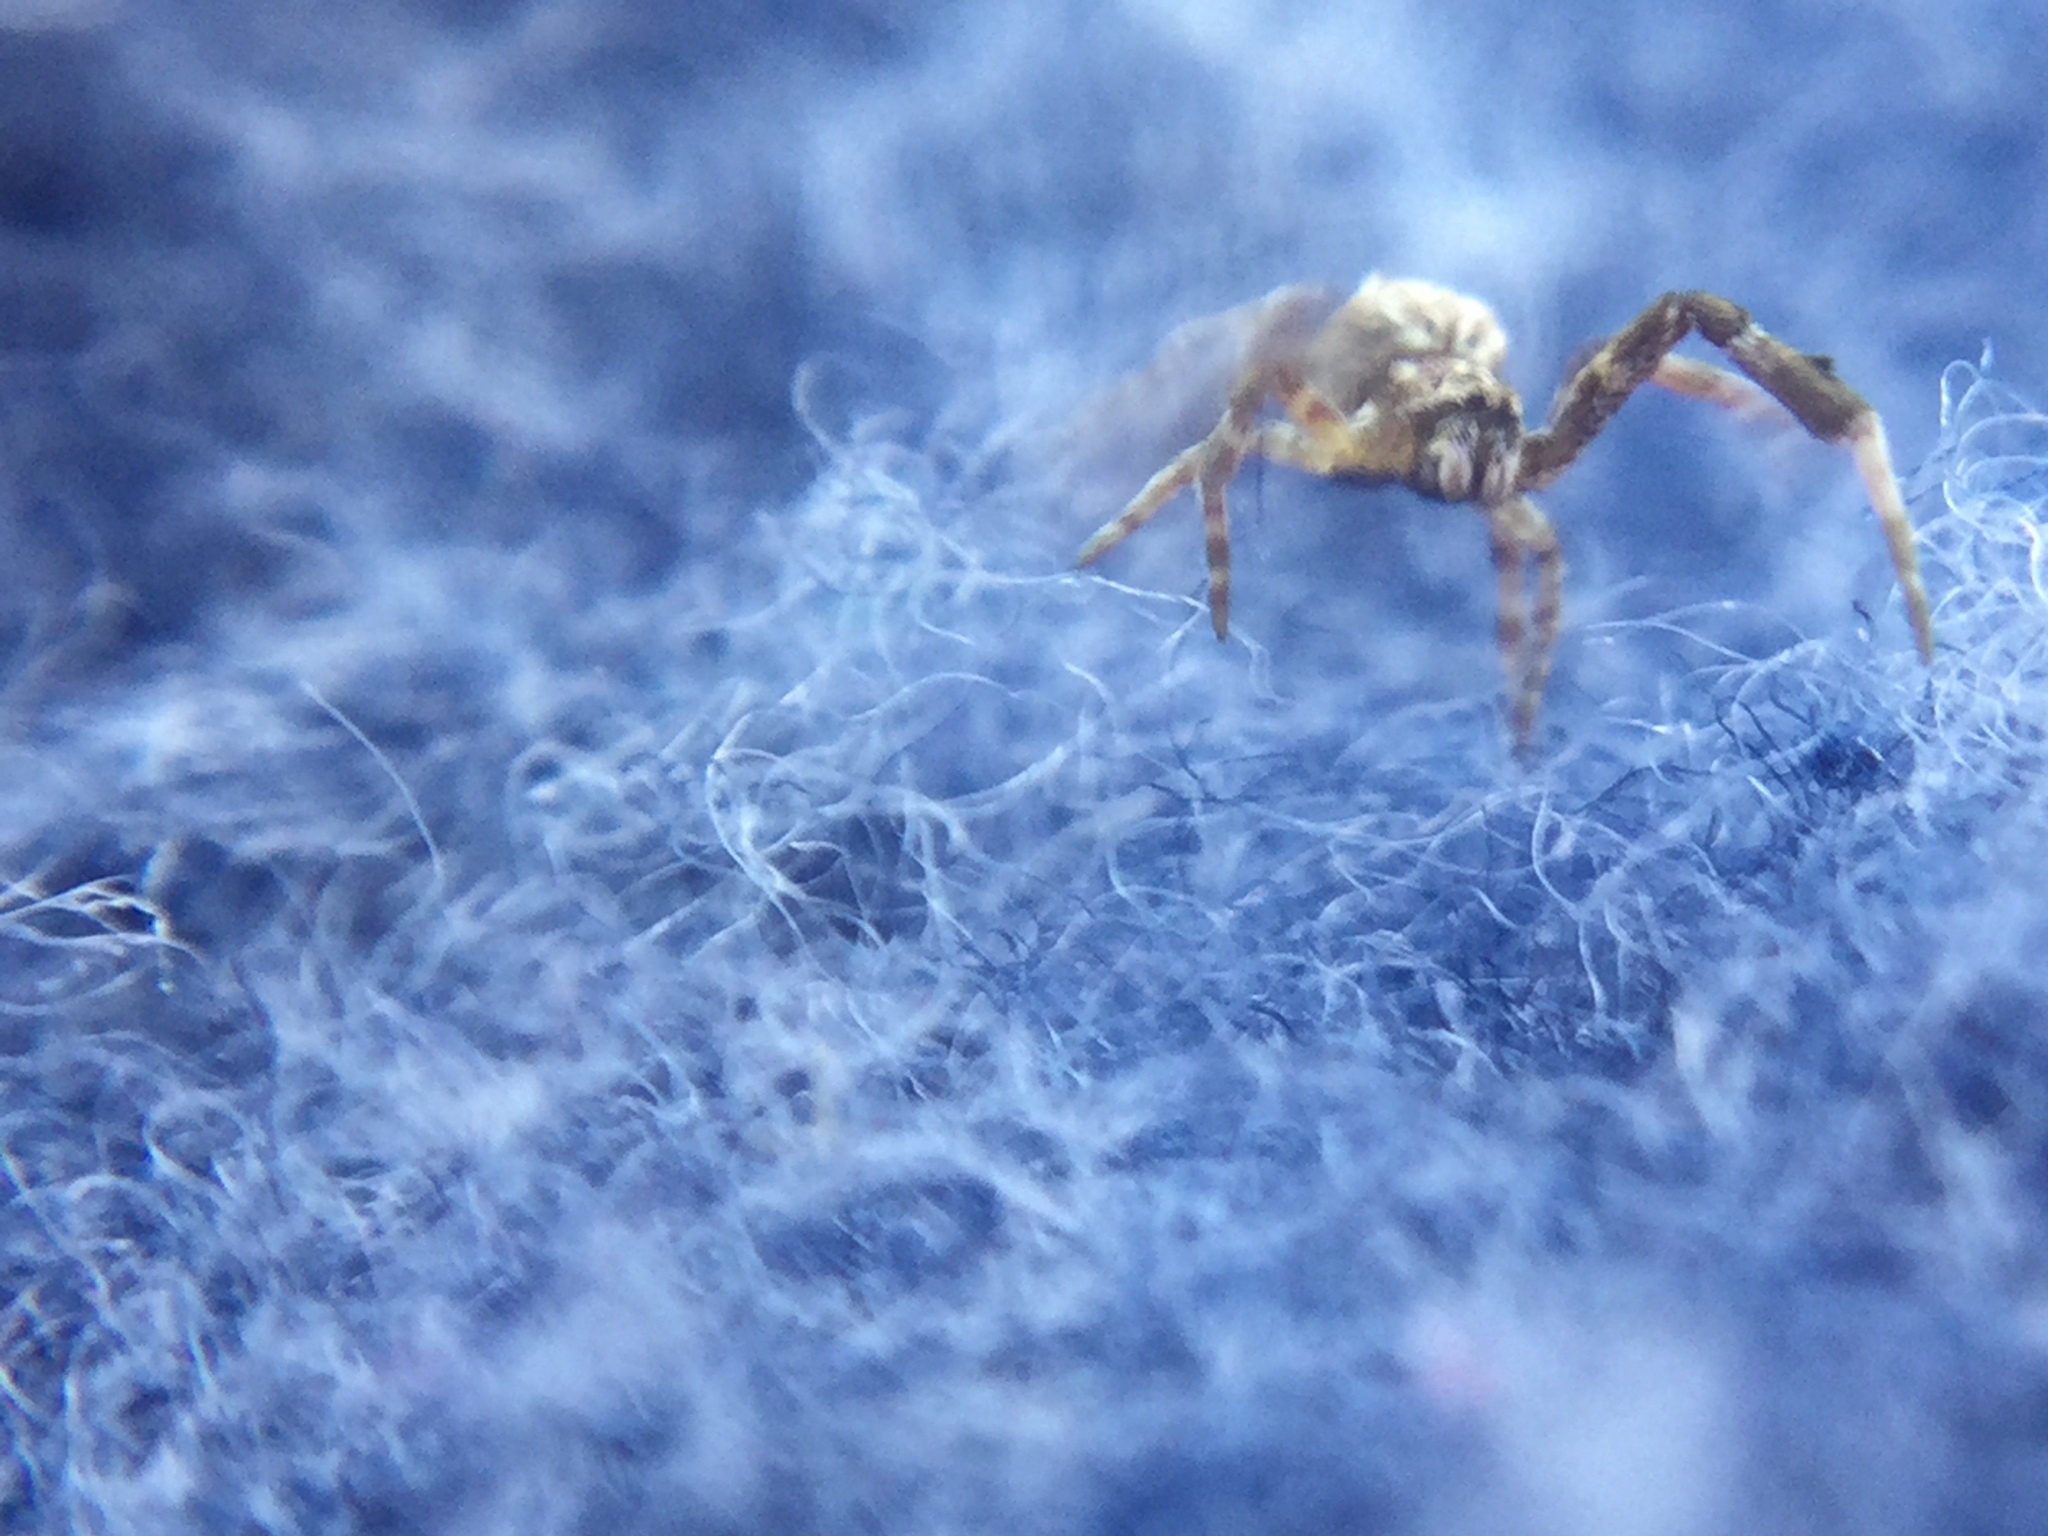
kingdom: Animalia
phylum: Arthropoda
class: Arachnida
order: Araneae
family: Uloboridae
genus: Uloborus
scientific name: Uloborus glomosus
